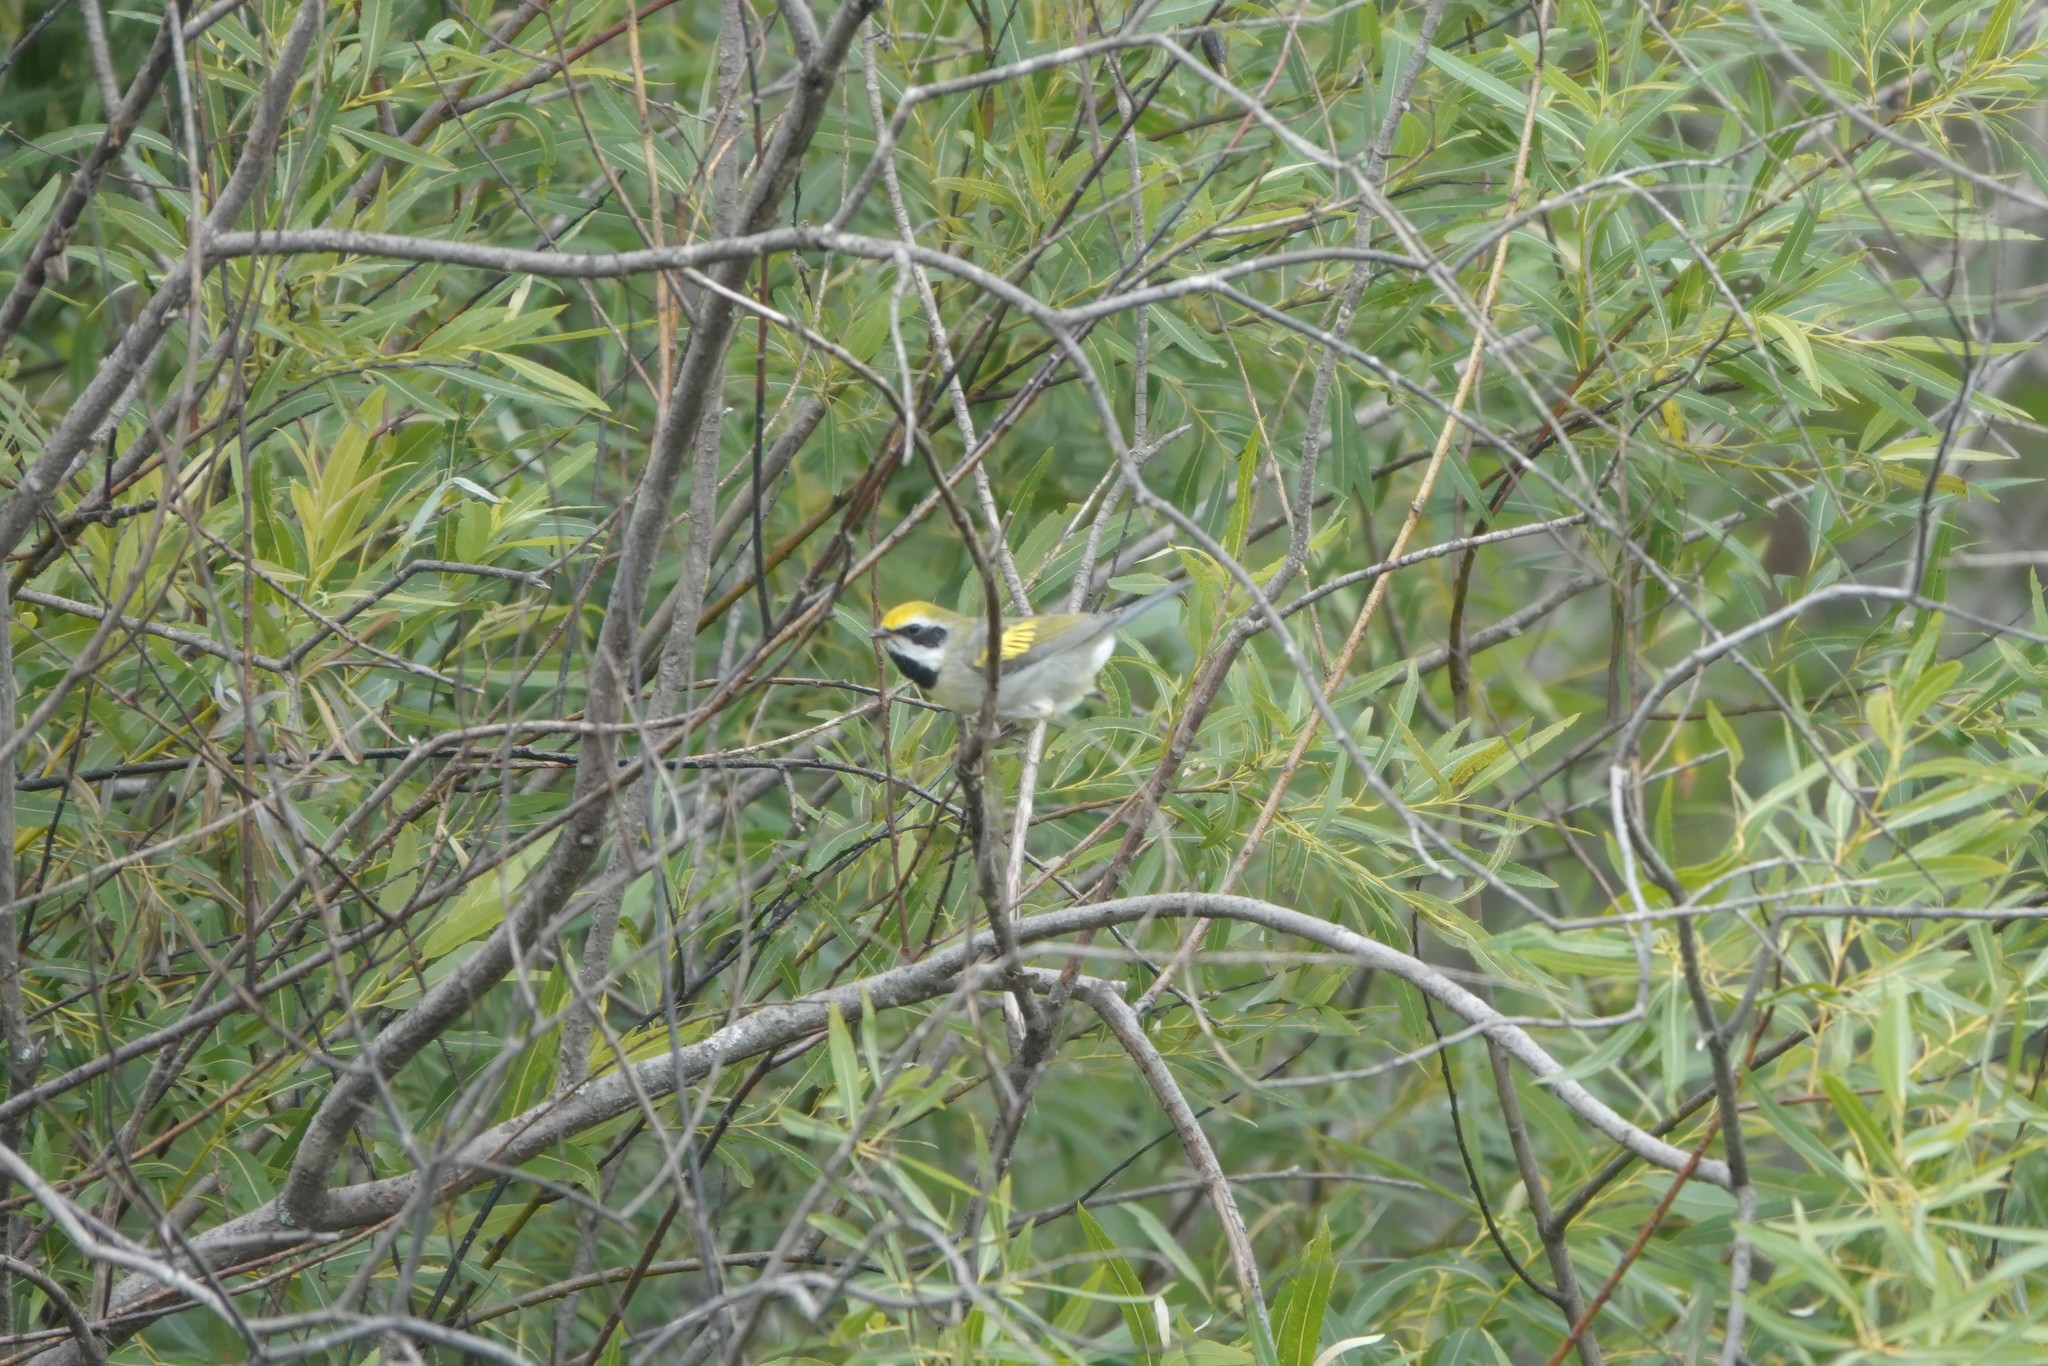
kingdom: Animalia
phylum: Chordata
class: Aves
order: Passeriformes
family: Parulidae
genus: Vermivora
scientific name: Vermivora chrysoptera
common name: Golden-winged warbler
